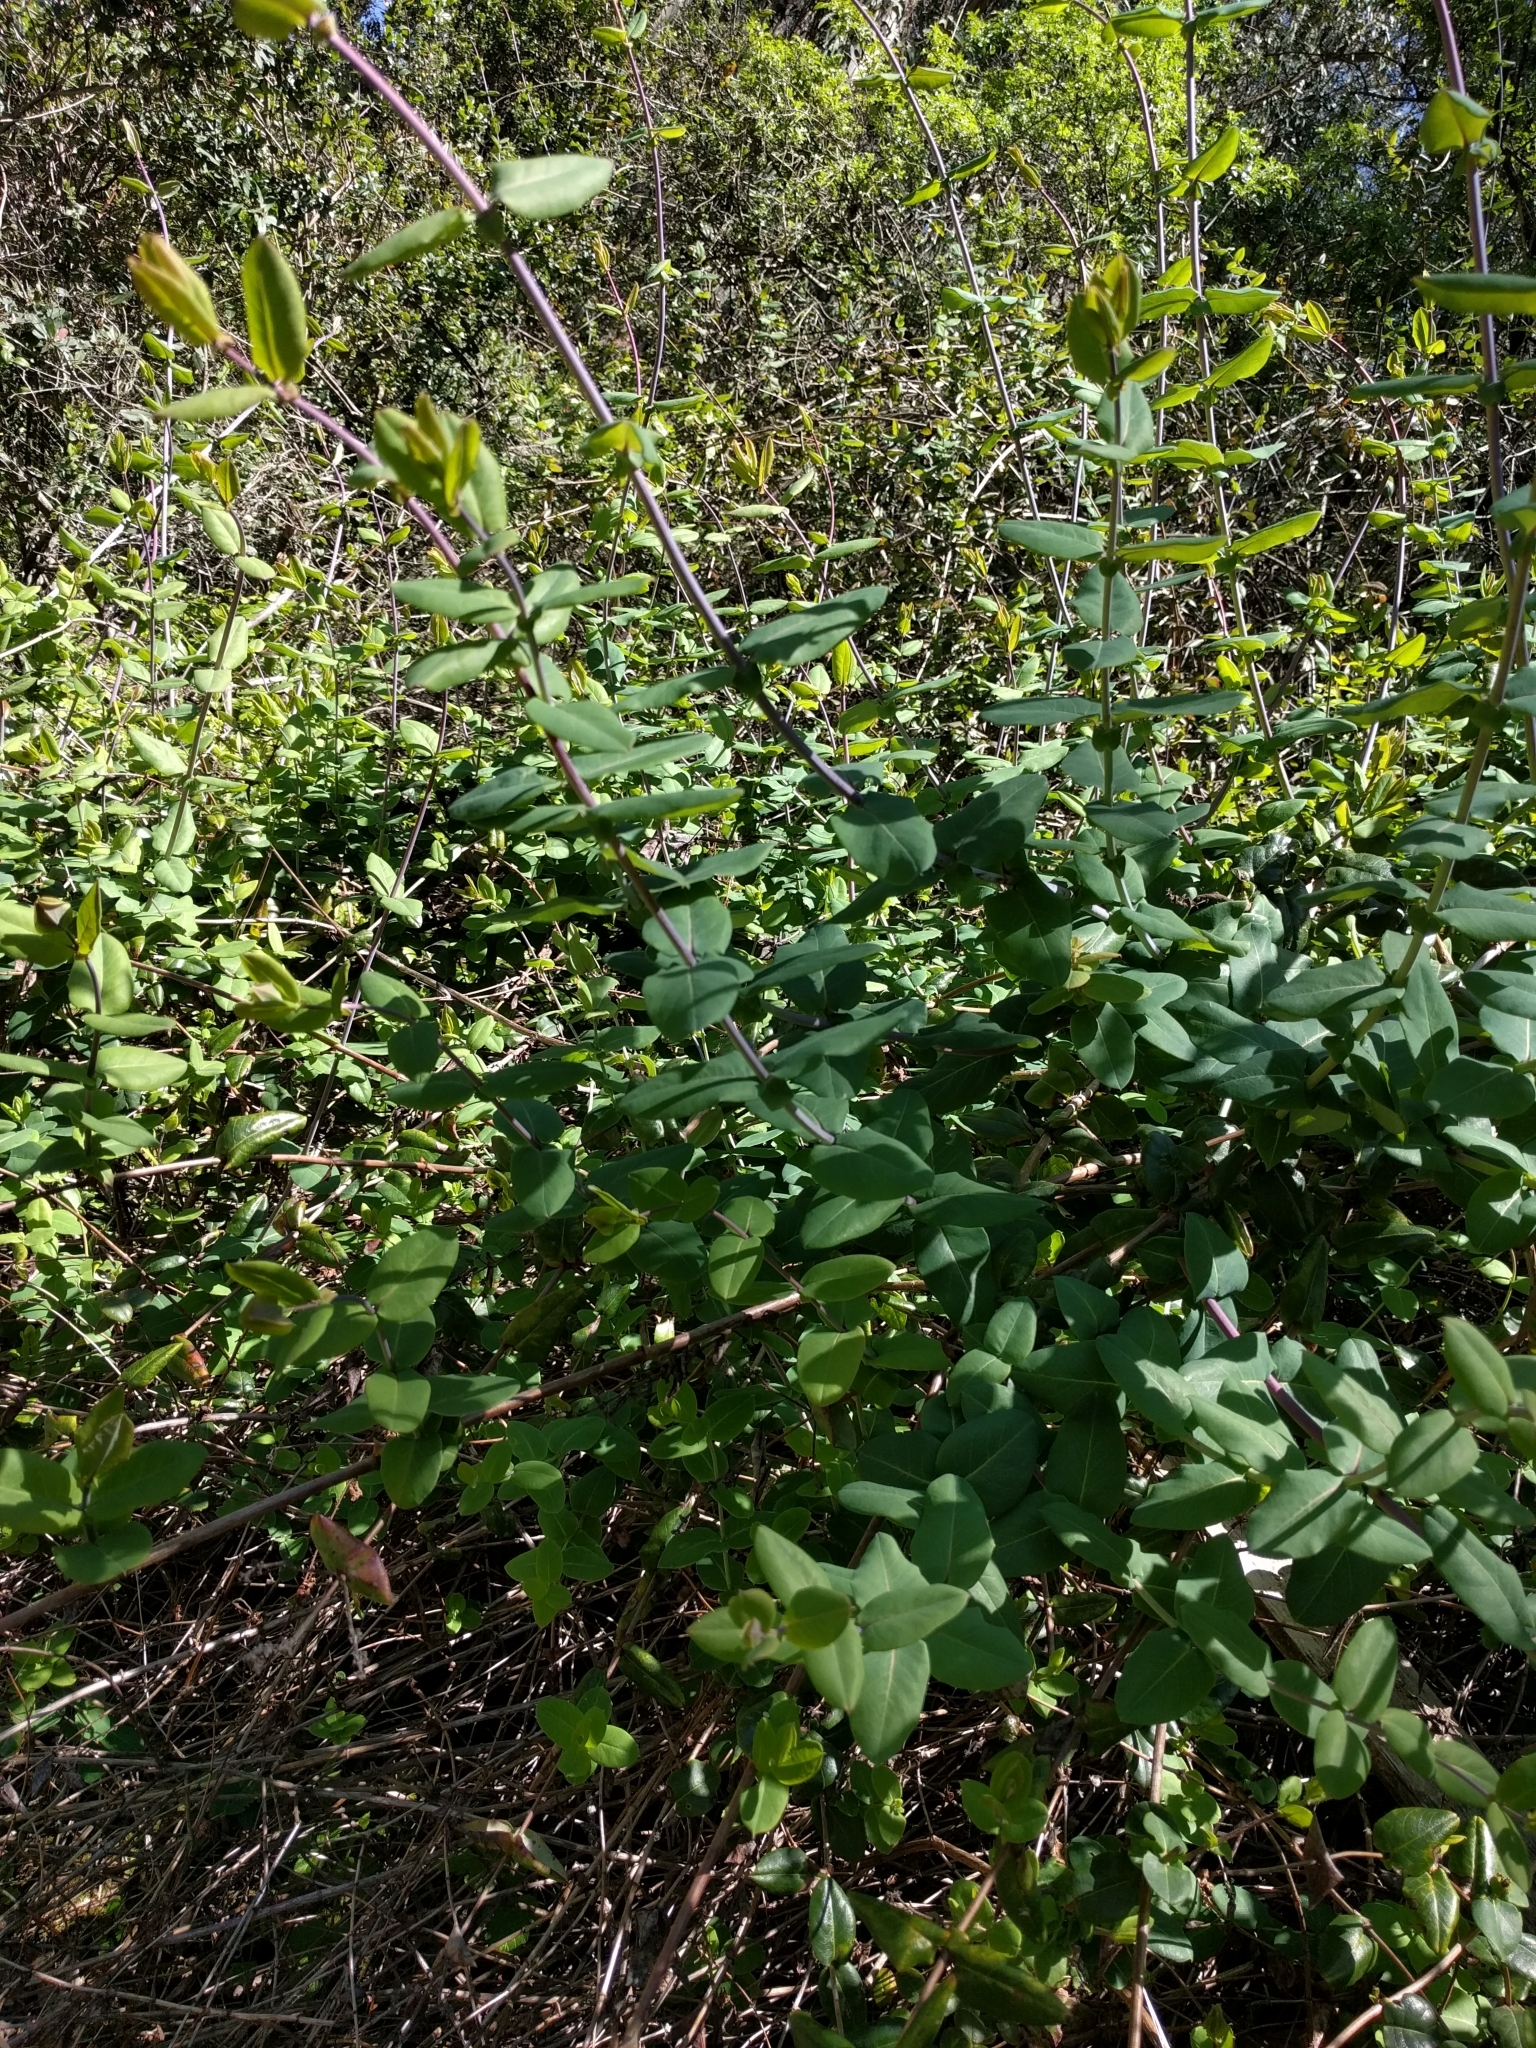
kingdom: Plantae
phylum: Tracheophyta
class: Magnoliopsida
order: Dipsacales
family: Caprifoliaceae
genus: Lonicera
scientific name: Lonicera hispidula
